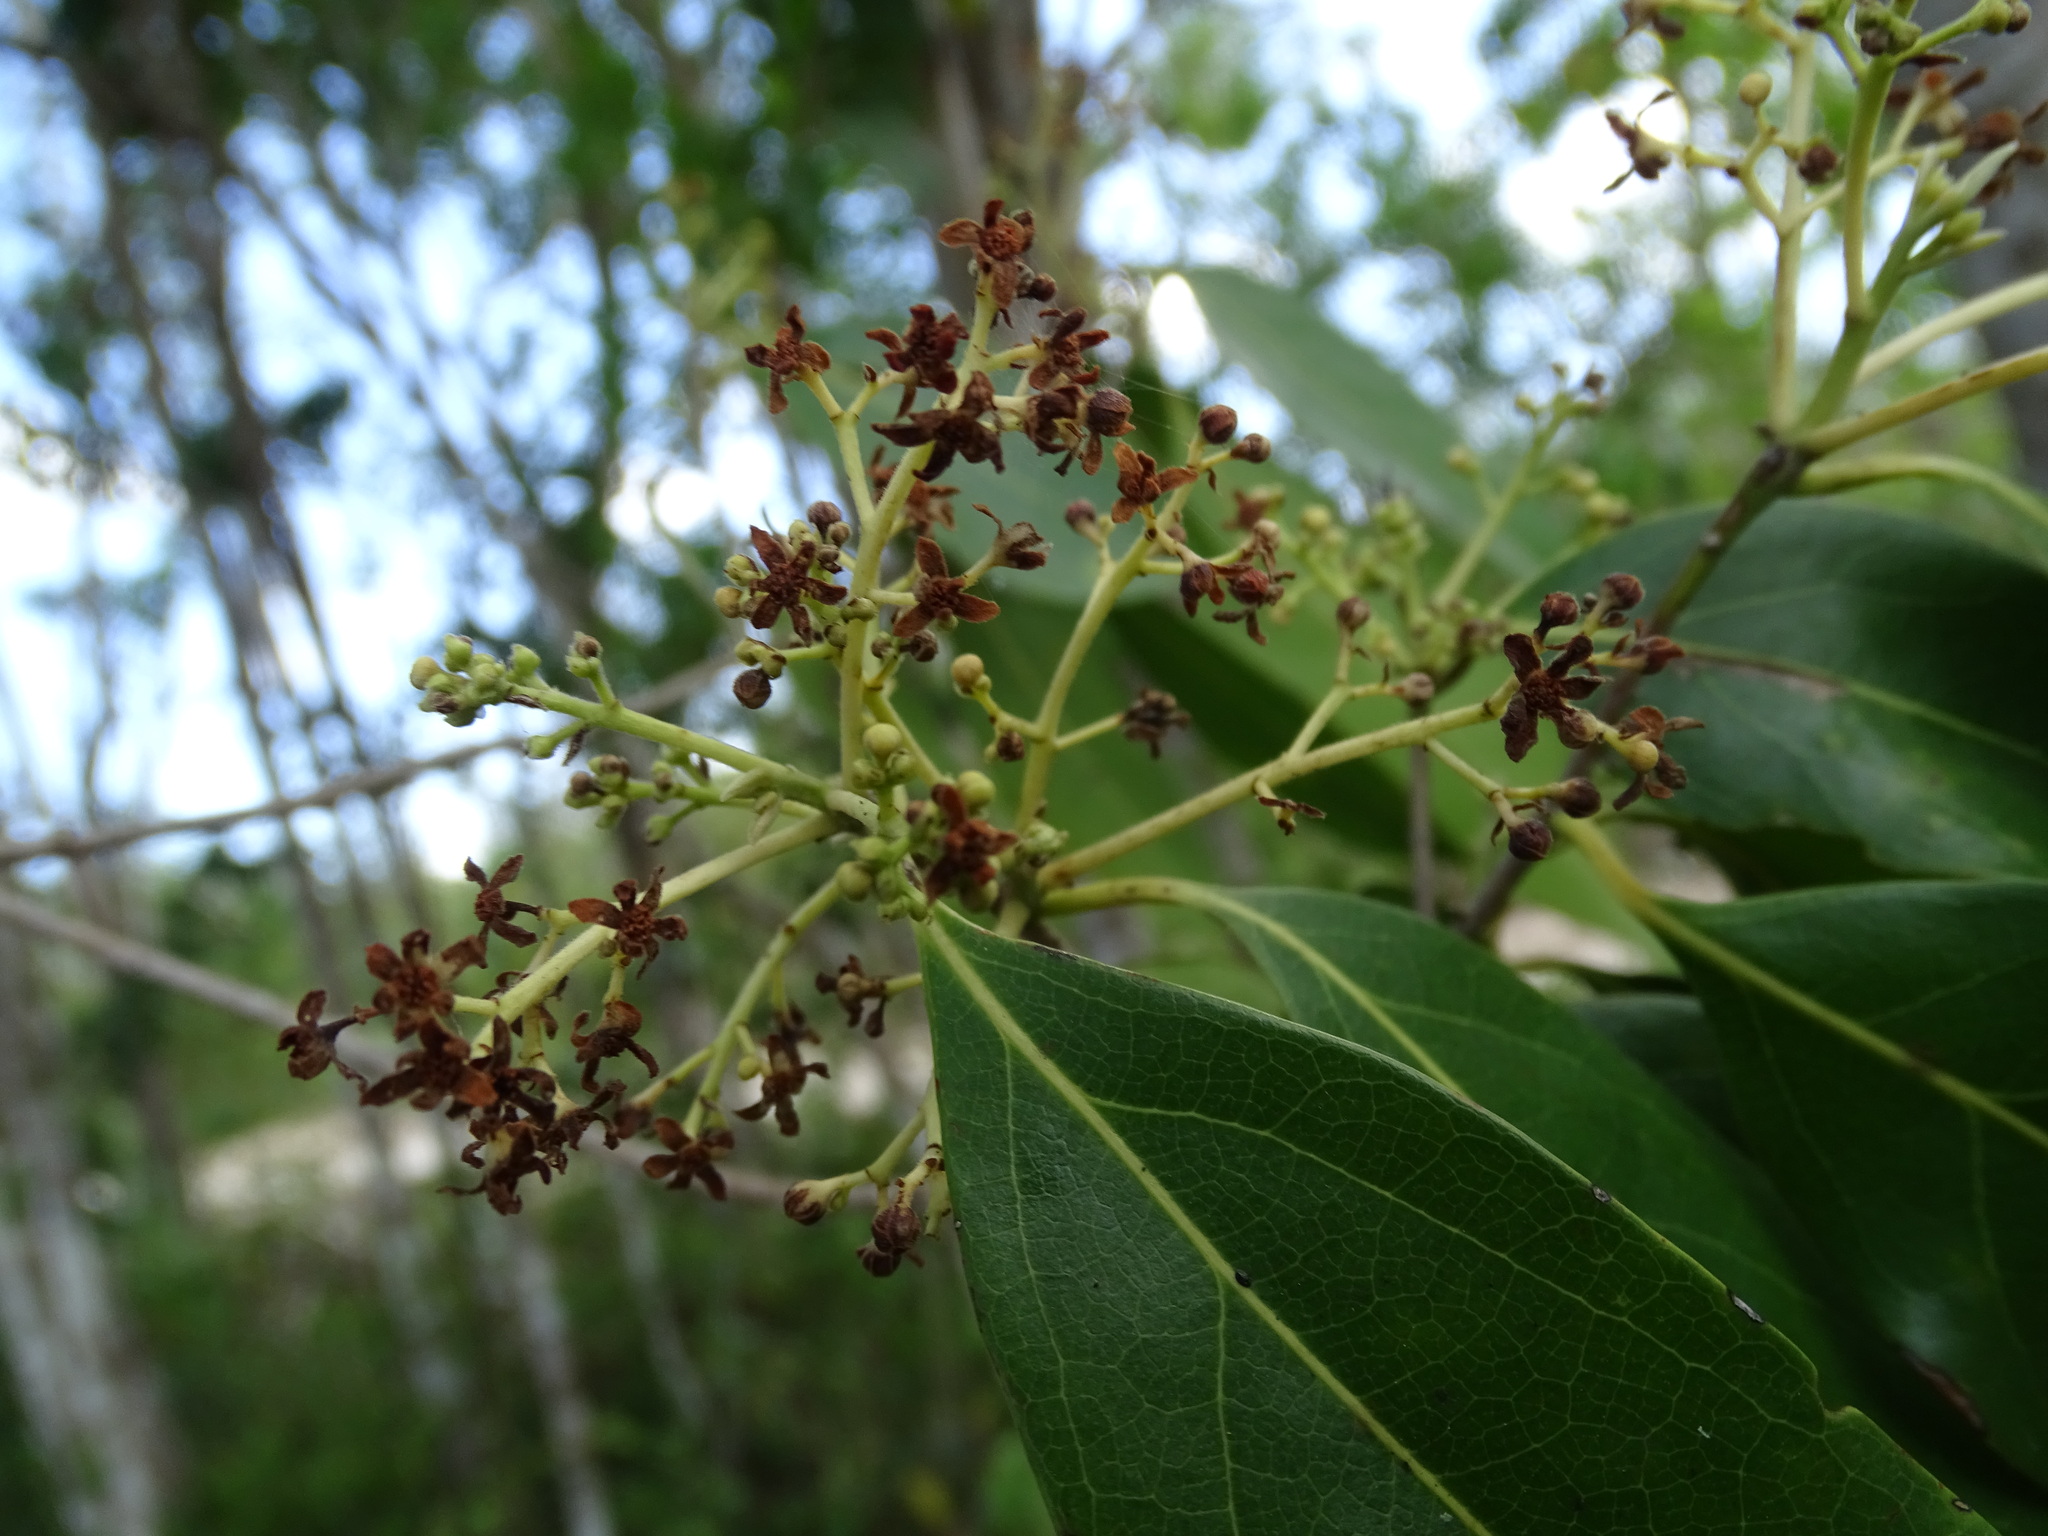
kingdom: Plantae
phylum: Tracheophyta
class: Magnoliopsida
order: Laurales
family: Lauraceae
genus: Damburneya
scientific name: Damburneya
